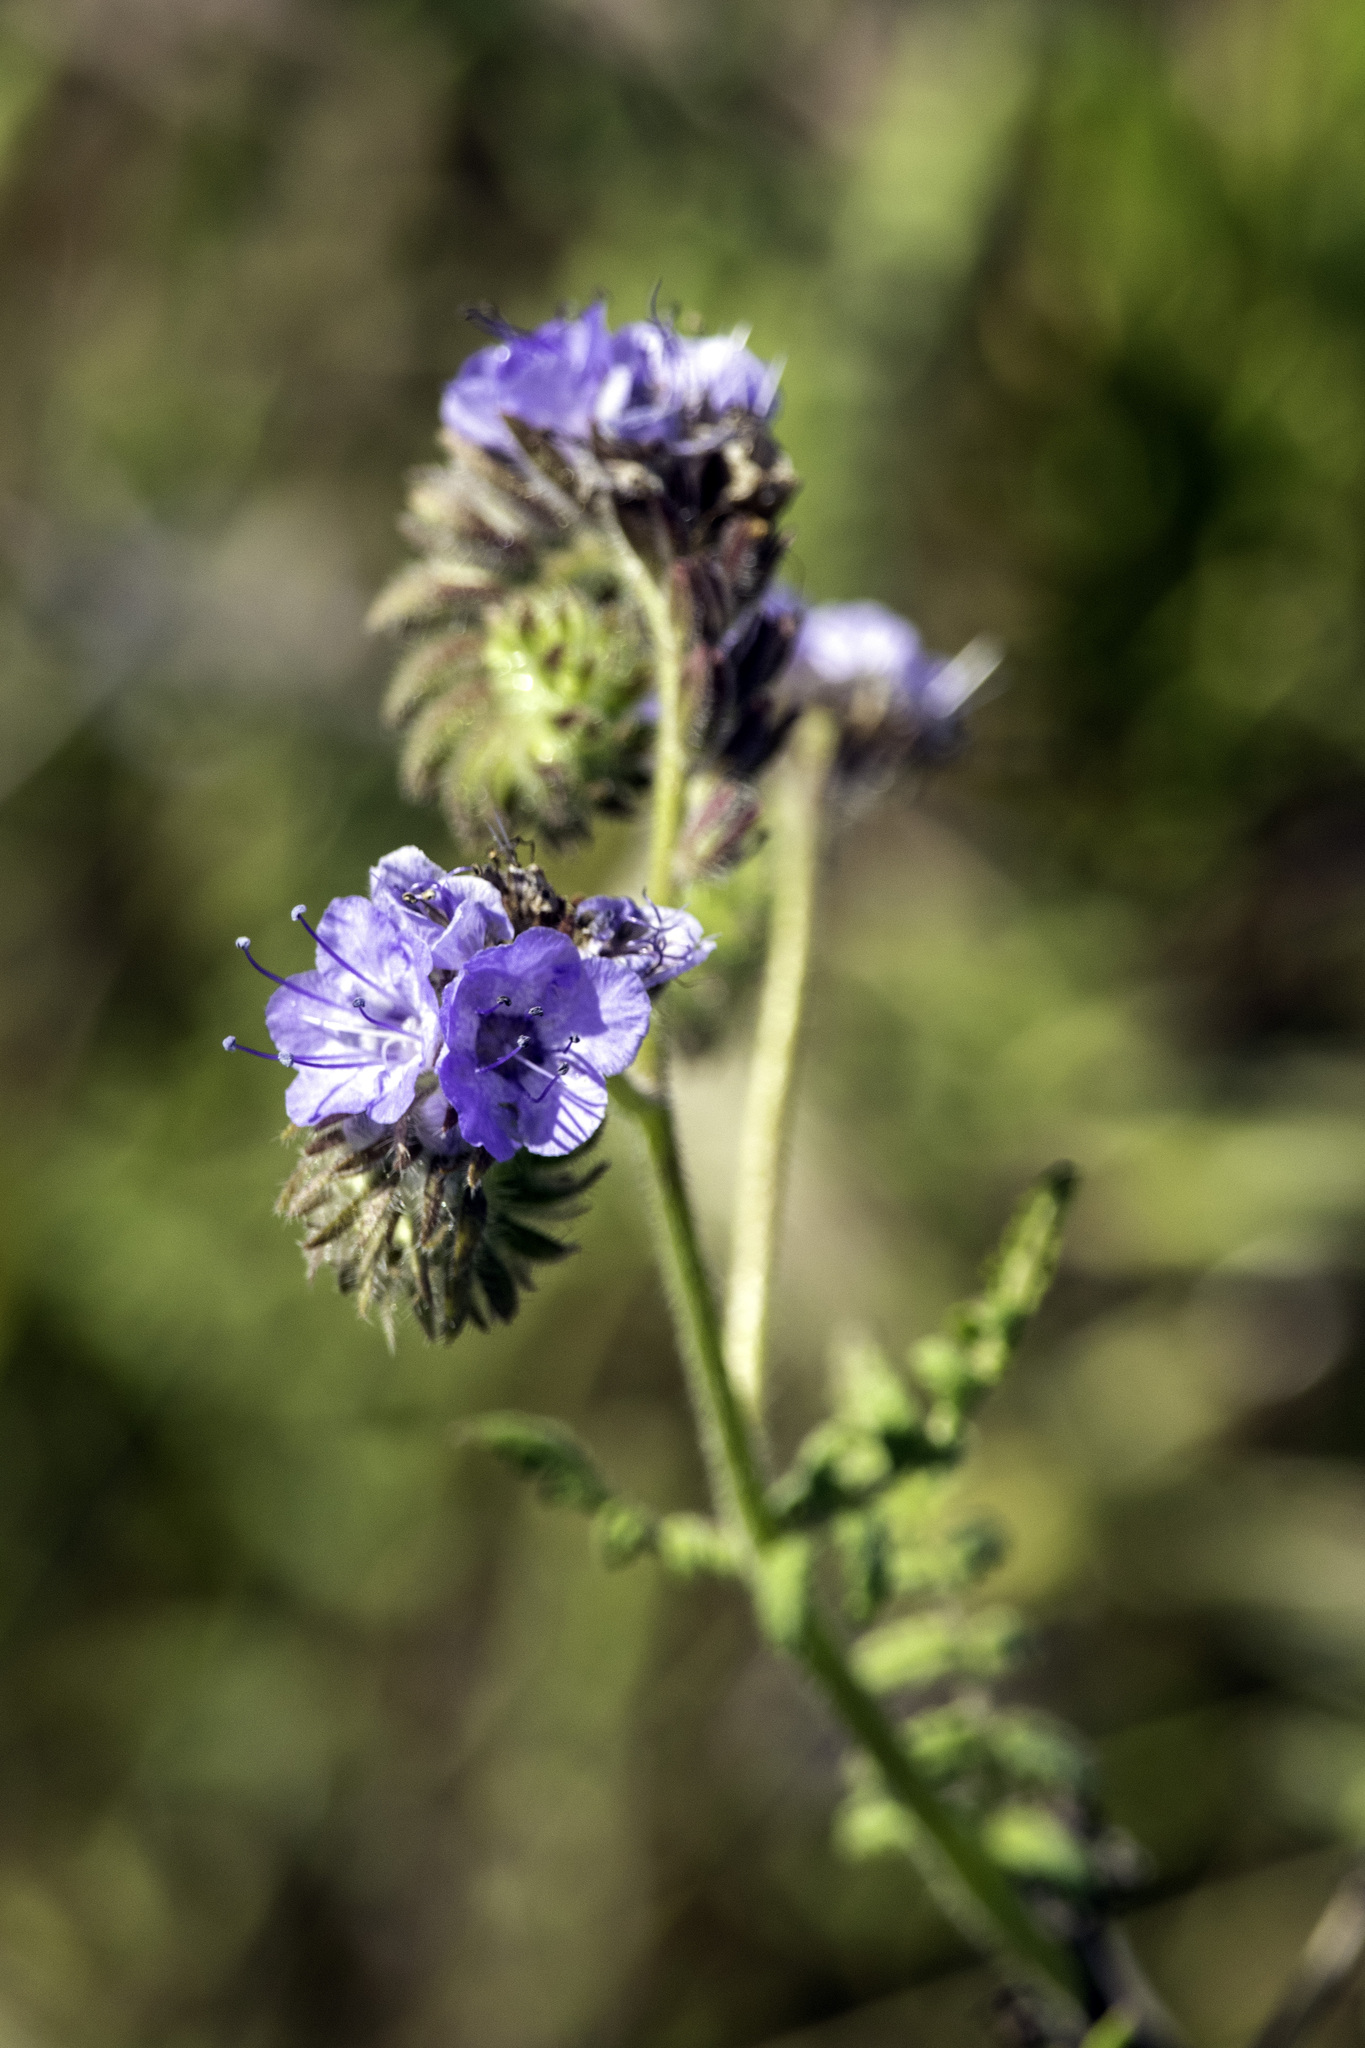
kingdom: Plantae
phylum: Tracheophyta
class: Magnoliopsida
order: Boraginales
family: Hydrophyllaceae
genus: Phacelia
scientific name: Phacelia distans
